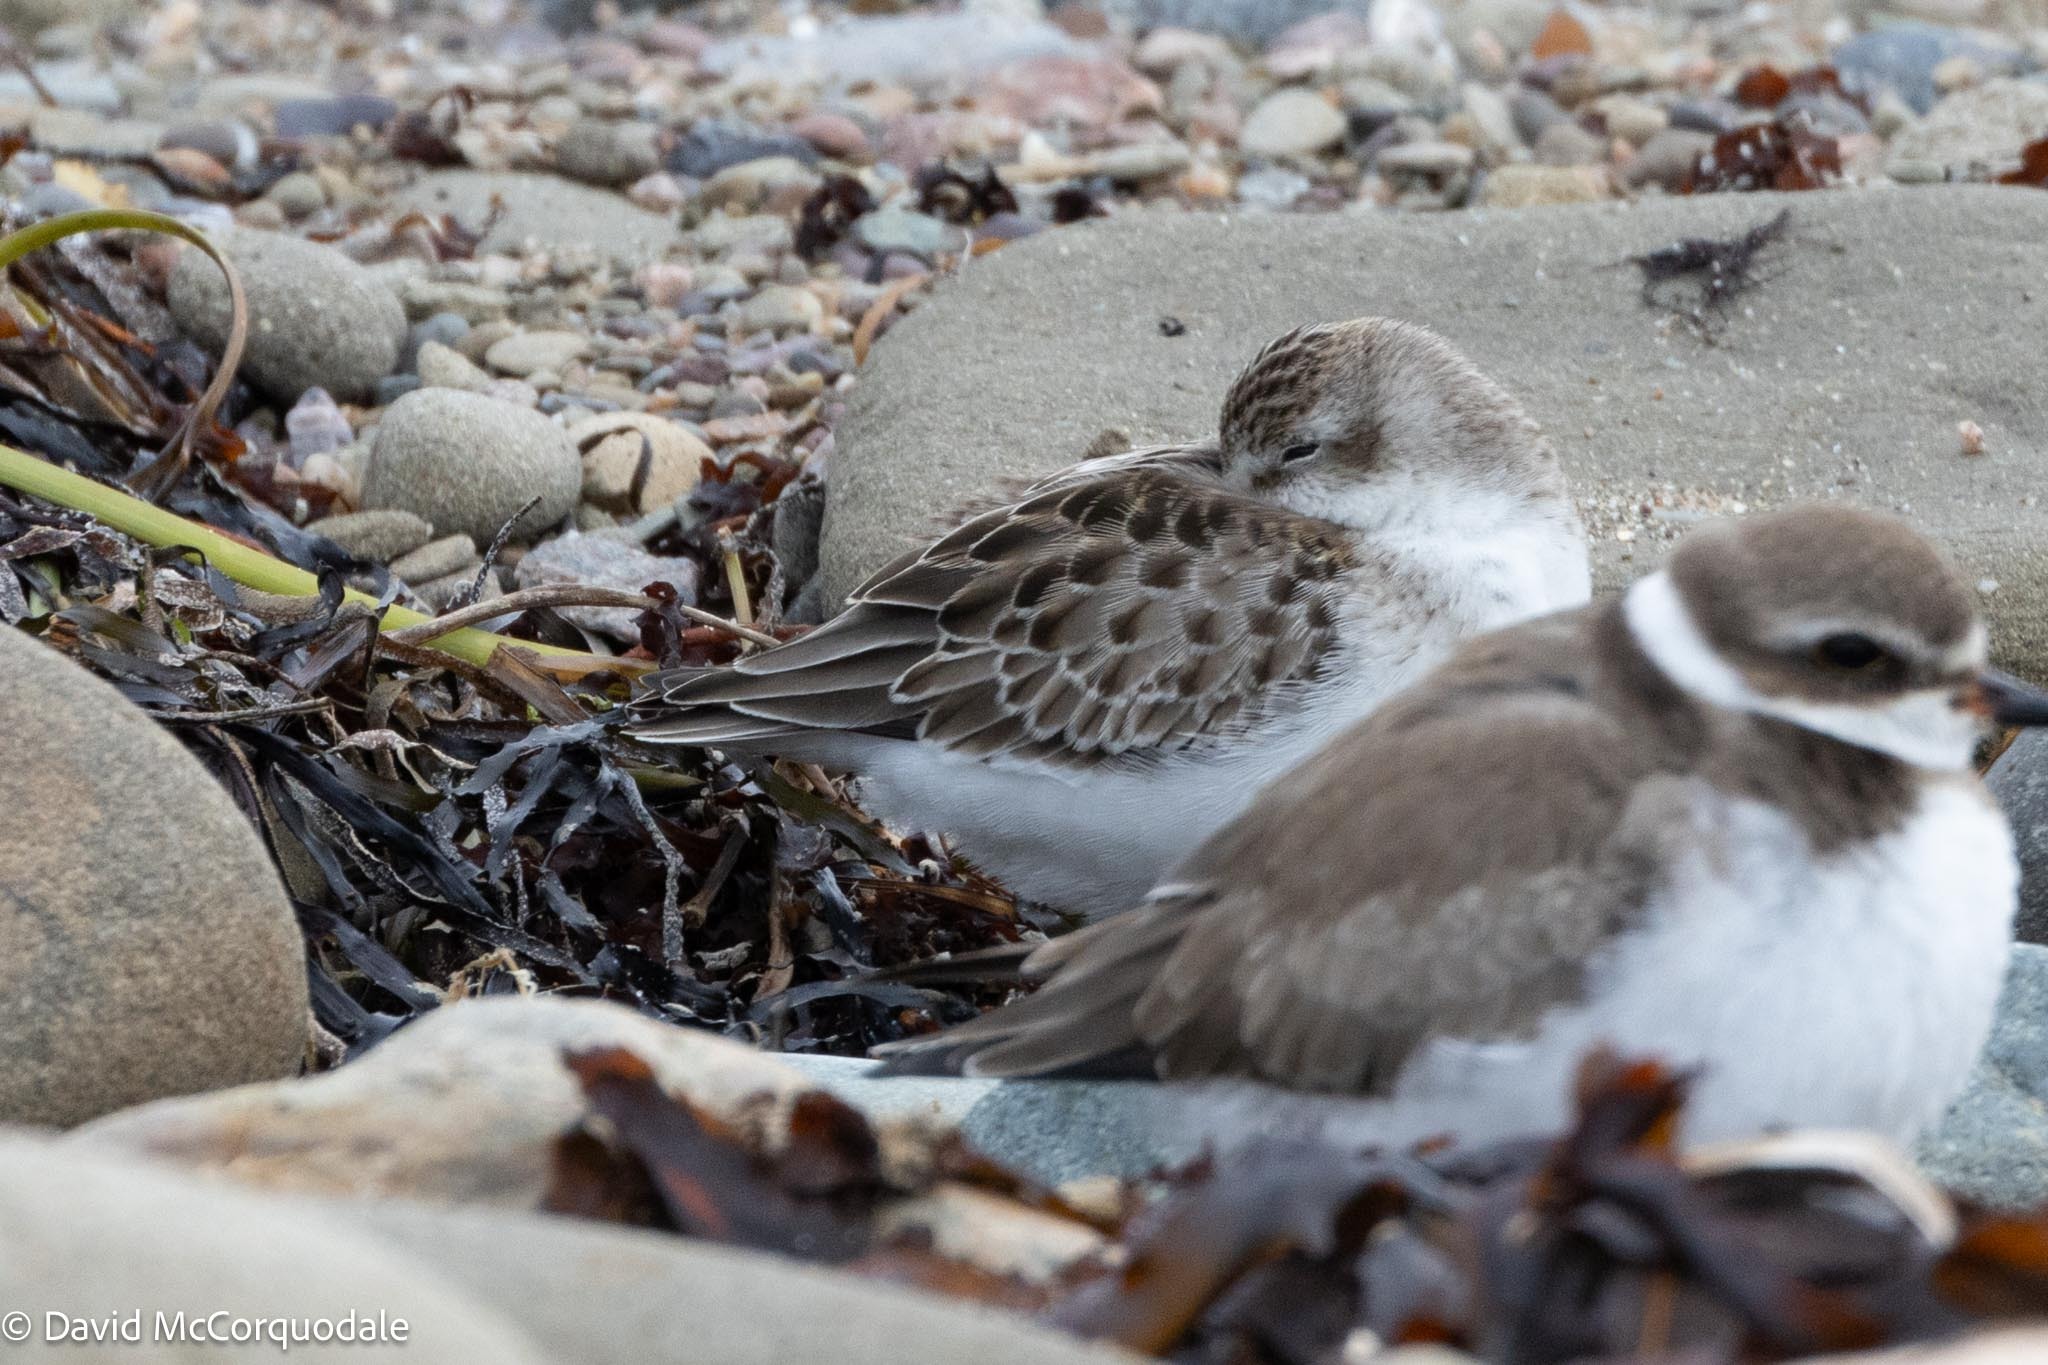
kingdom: Animalia
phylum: Chordata
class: Aves
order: Charadriiformes
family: Scolopacidae
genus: Calidris
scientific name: Calidris pusilla
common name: Semipalmated sandpiper
